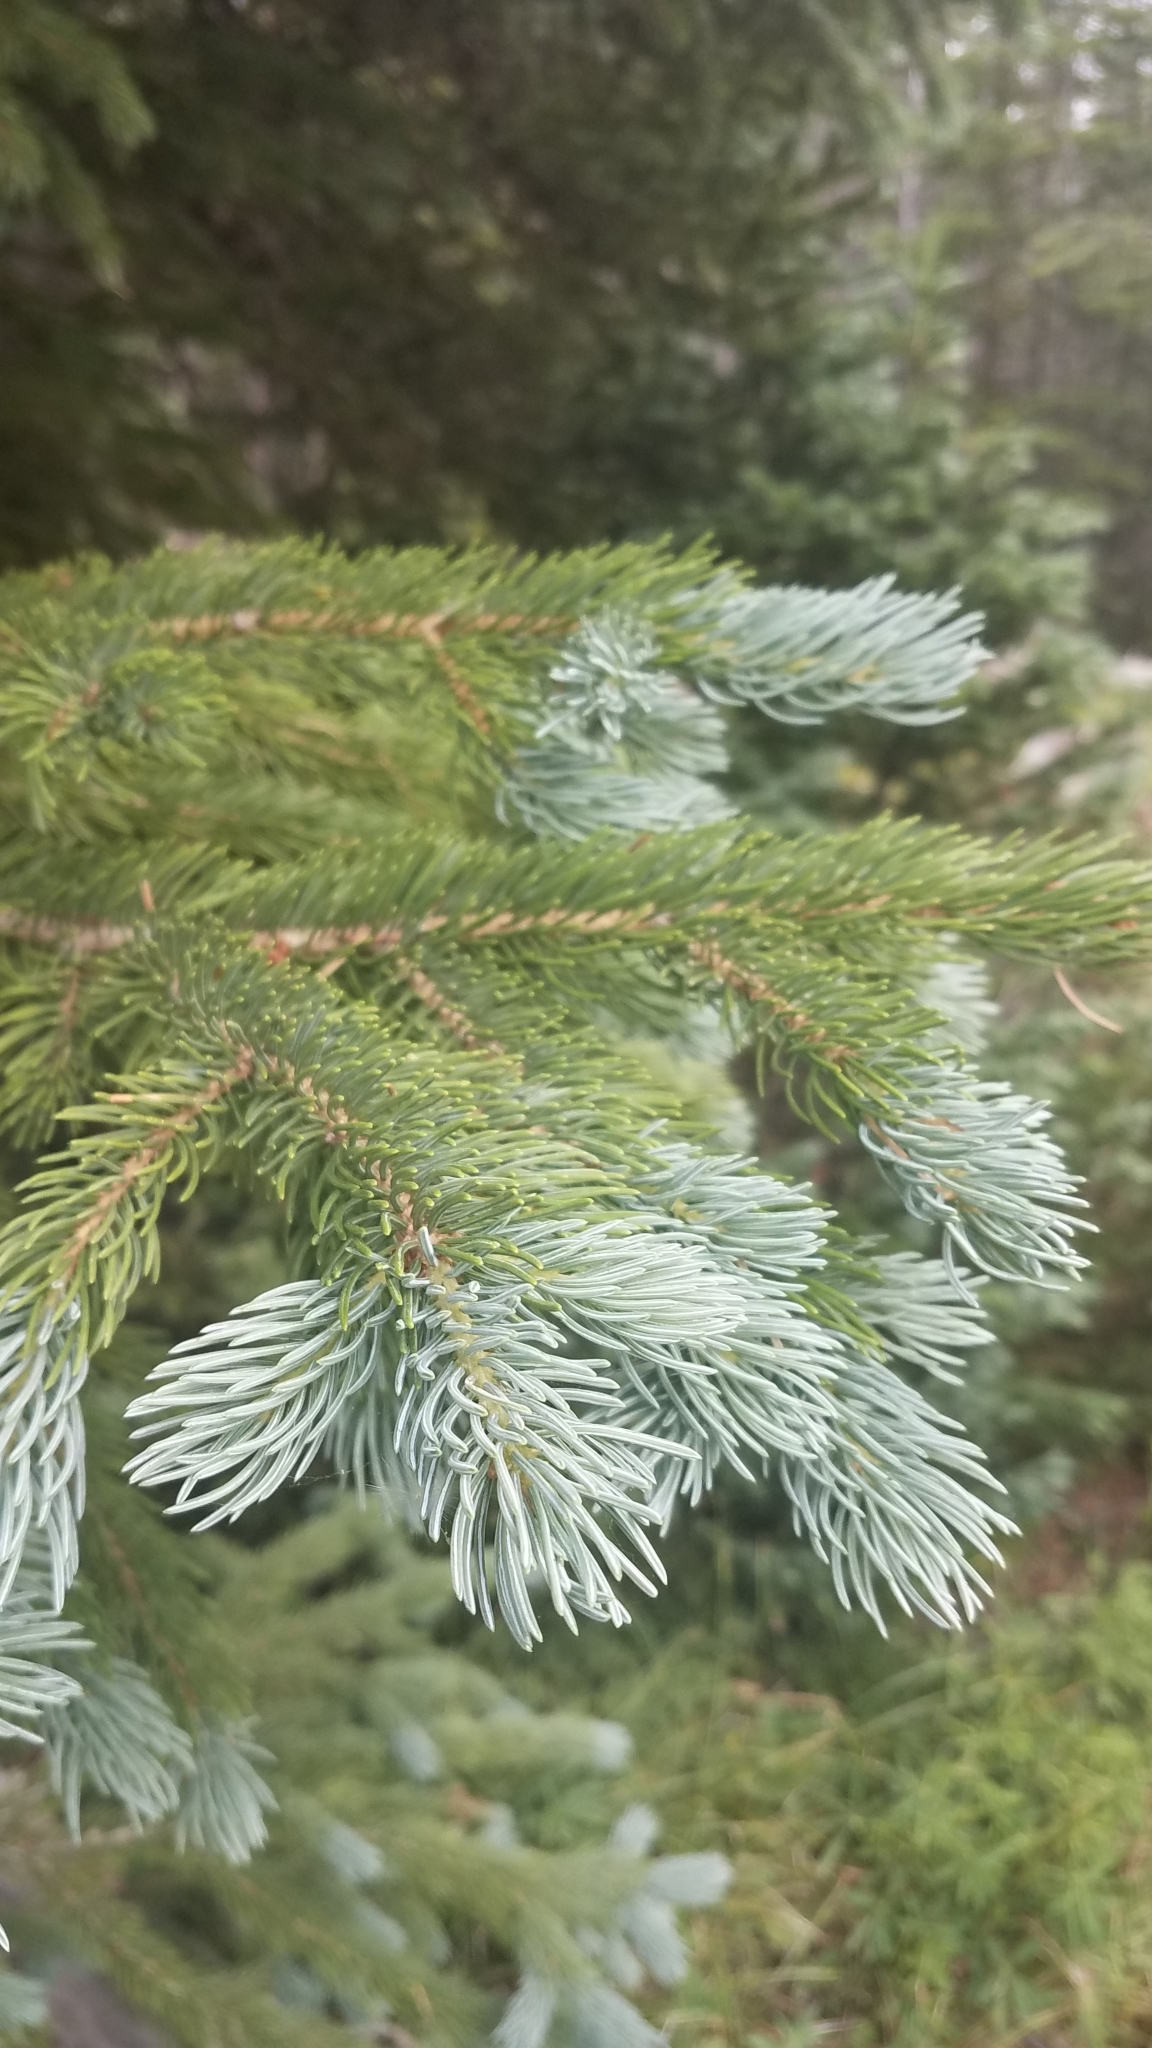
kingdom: Plantae
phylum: Tracheophyta
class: Pinopsida
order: Pinales
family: Pinaceae
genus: Picea
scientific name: Picea engelmannii
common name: Engelmann spruce
